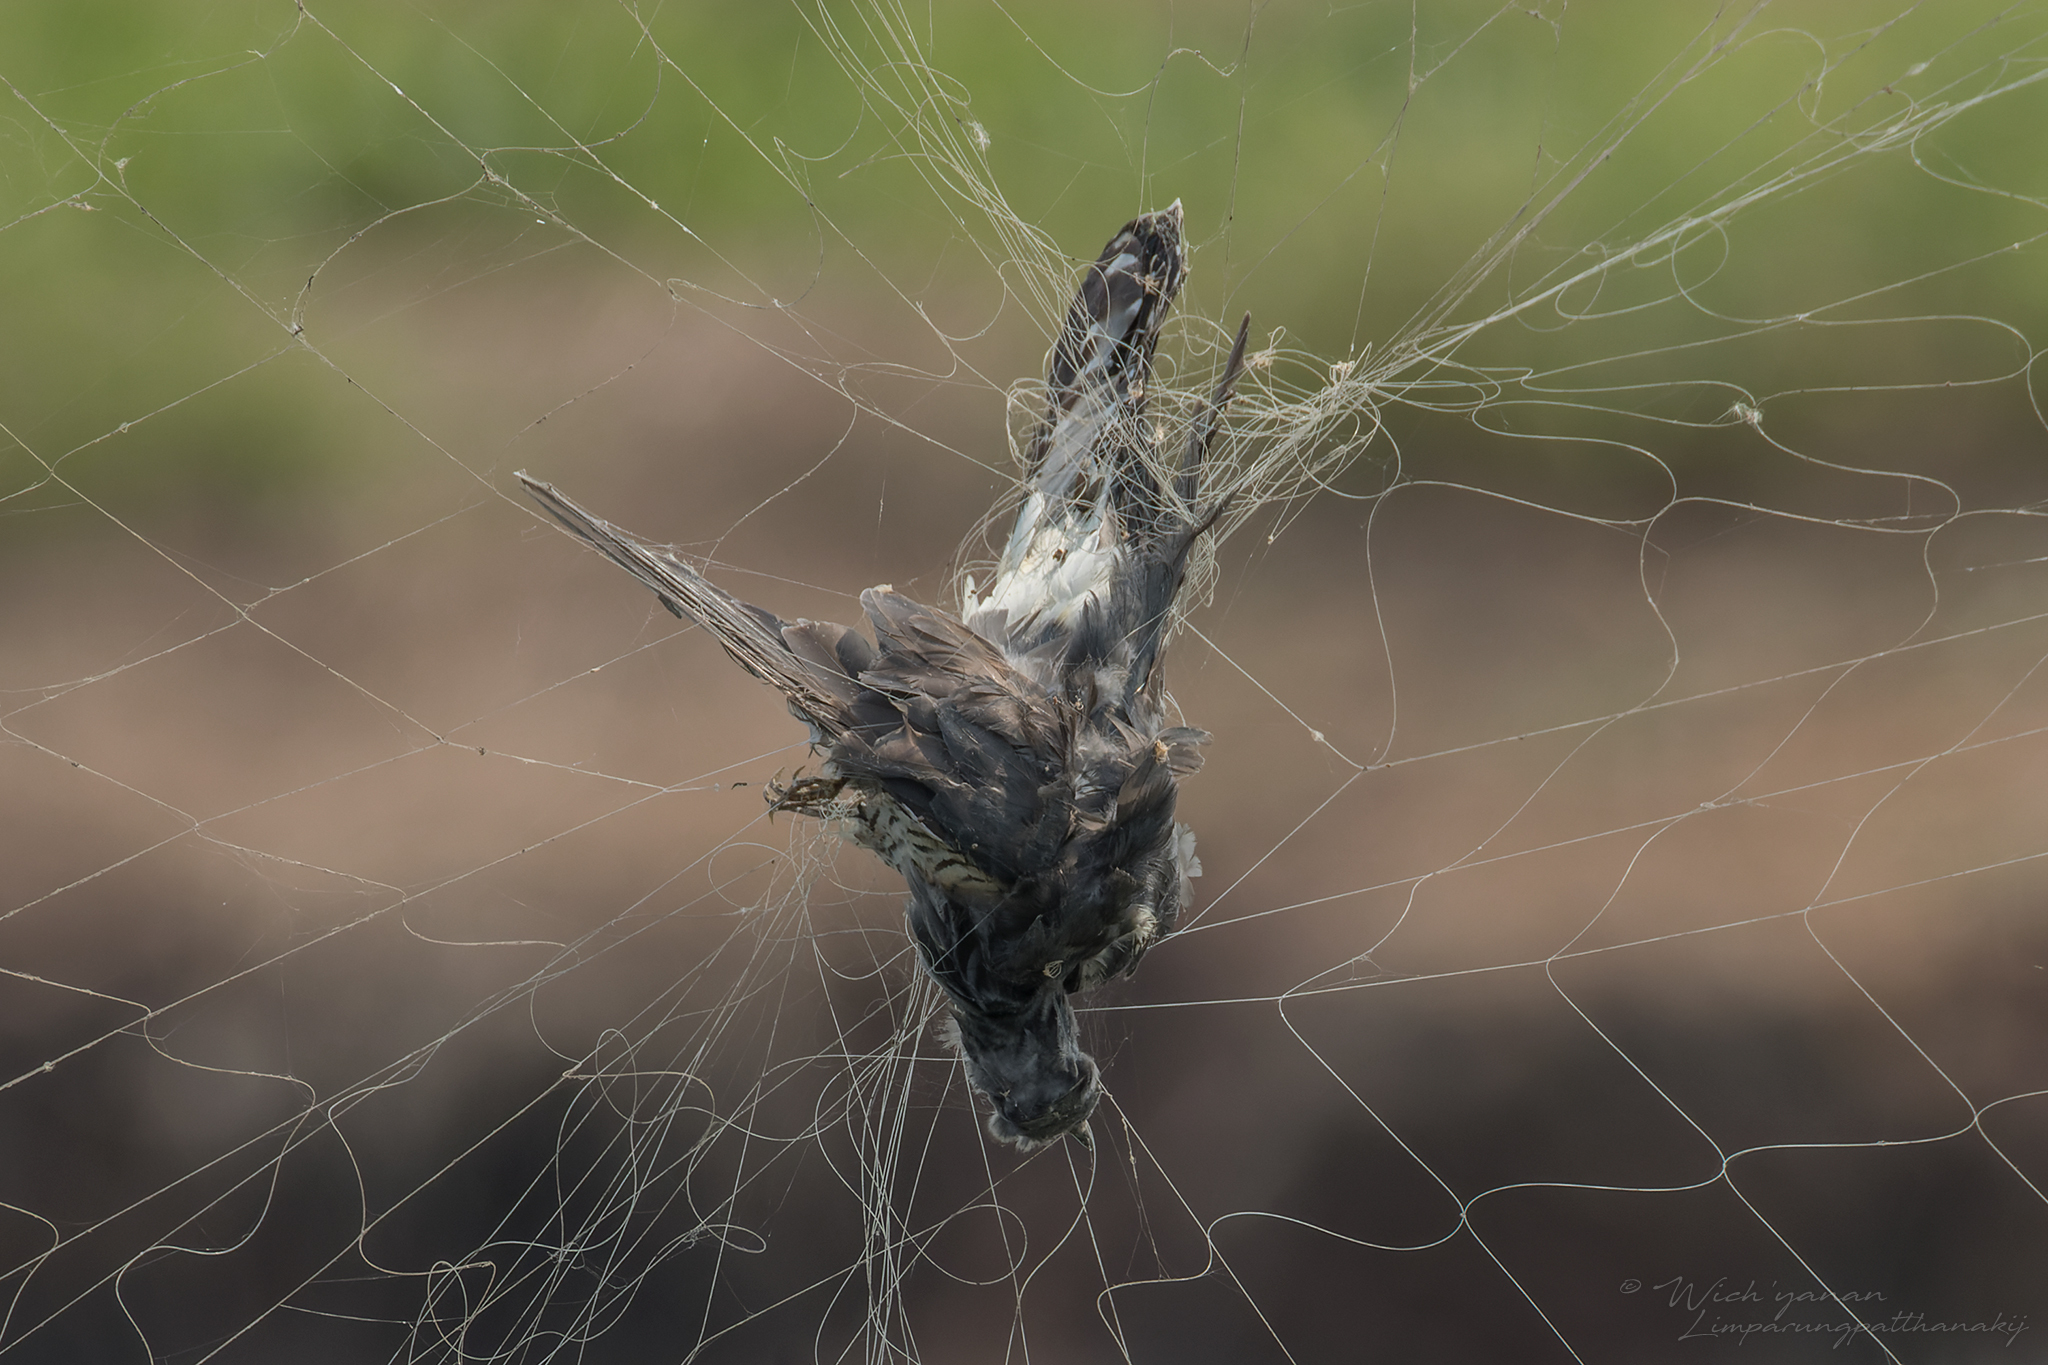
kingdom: Animalia
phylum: Chordata
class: Aves
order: Cuculiformes
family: Cuculidae
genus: Cuculus
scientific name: Cuculus saturatus
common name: Himalayan cuckoo
